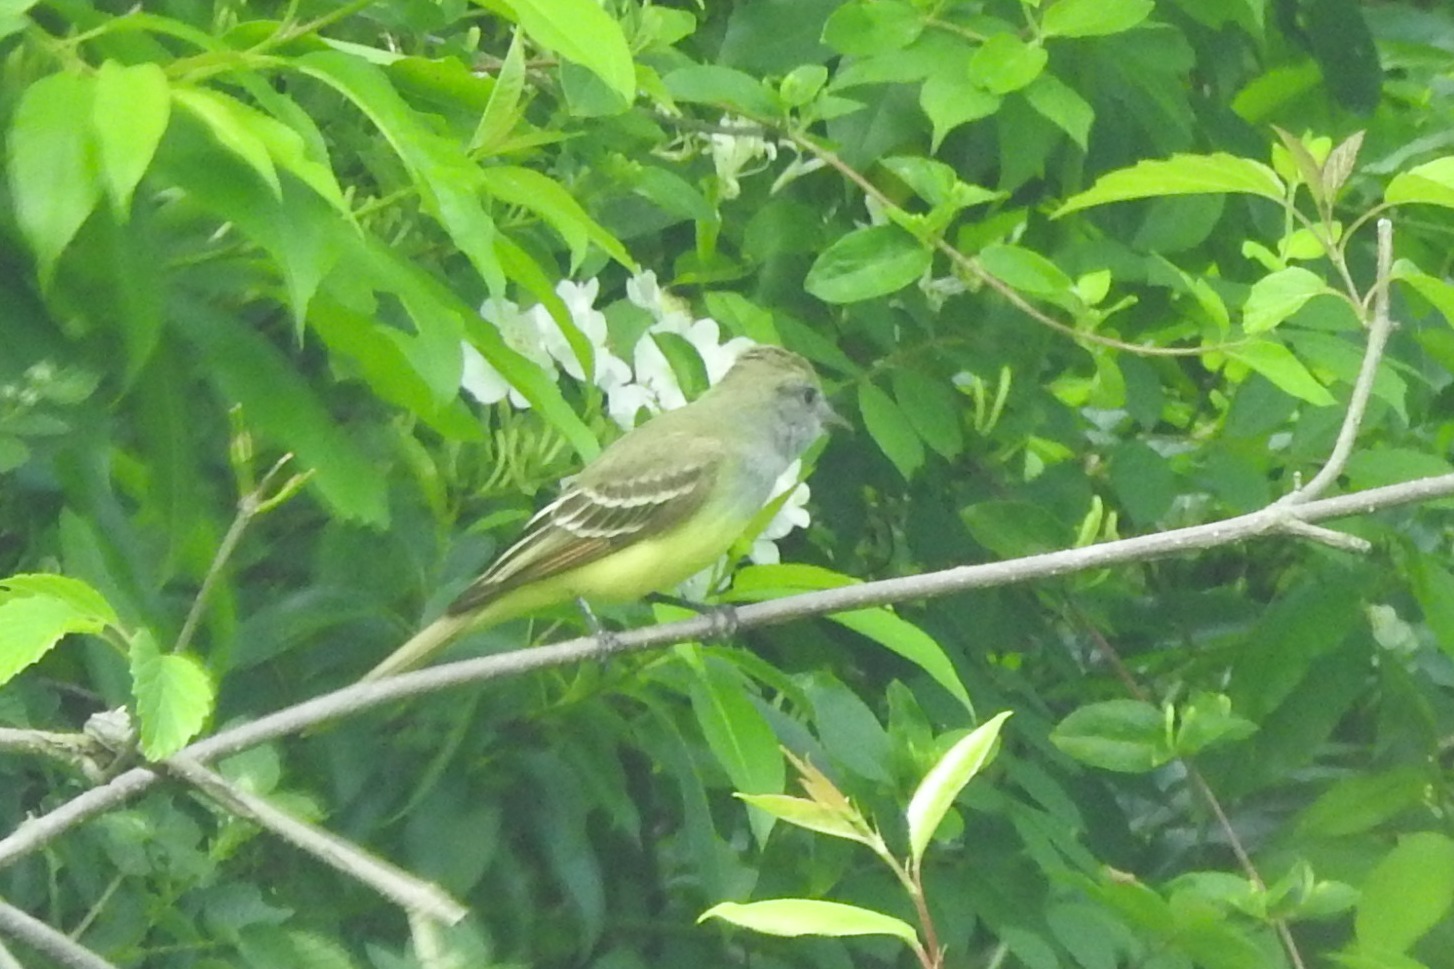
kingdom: Animalia
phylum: Chordata
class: Aves
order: Passeriformes
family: Tyrannidae
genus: Myiarchus
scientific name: Myiarchus crinitus
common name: Great crested flycatcher
